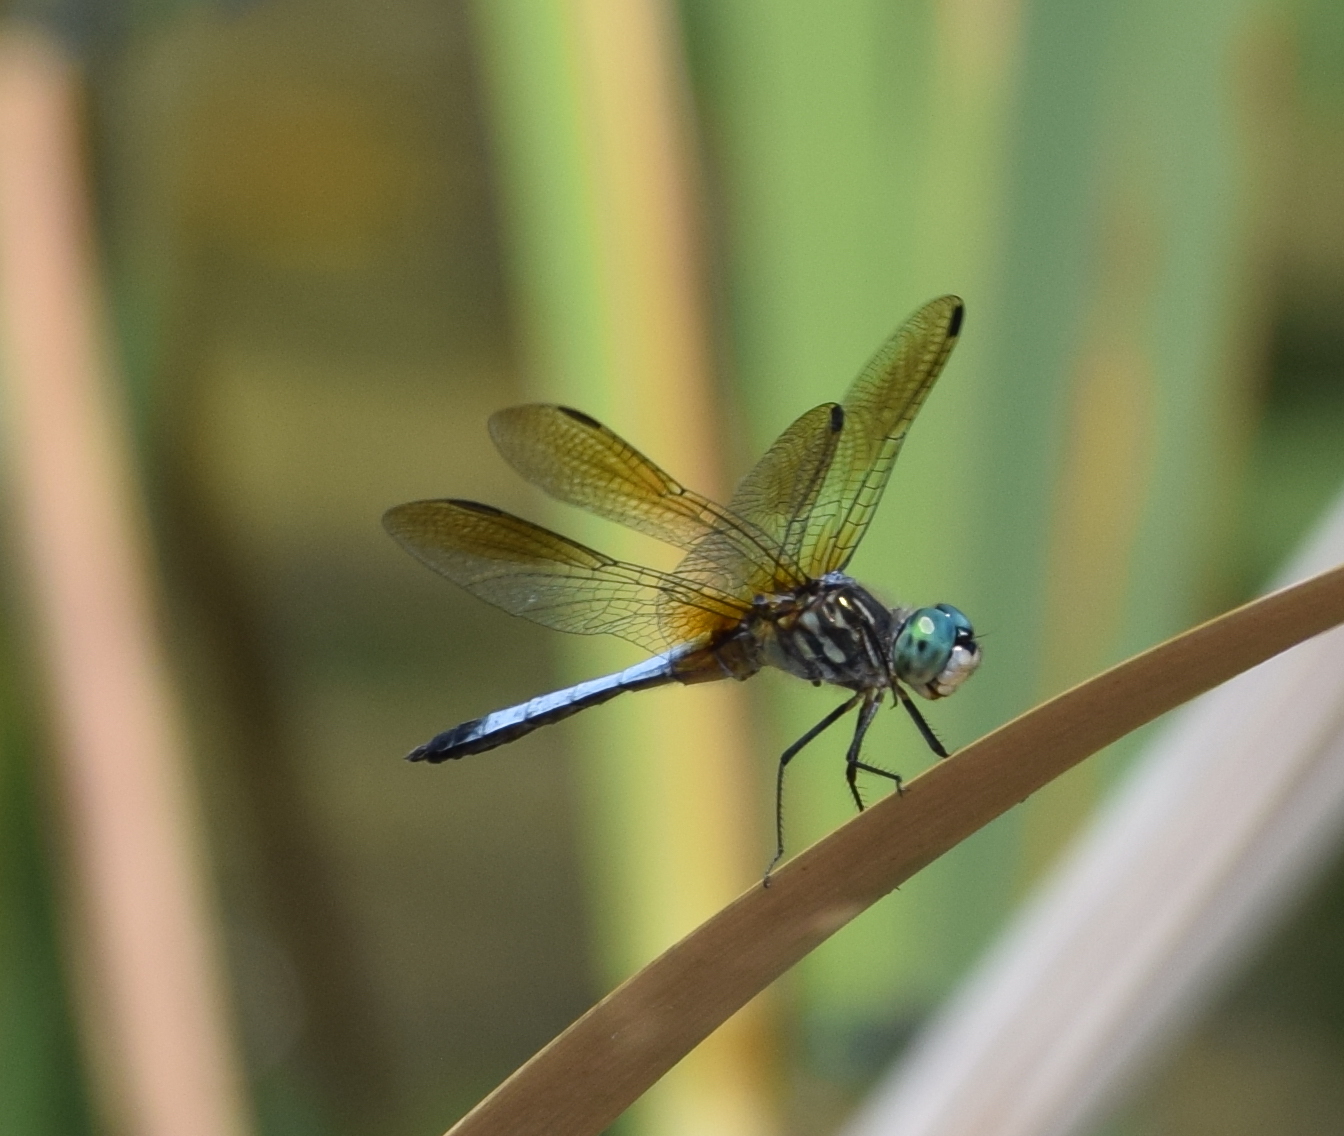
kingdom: Animalia
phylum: Arthropoda
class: Insecta
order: Odonata
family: Libellulidae
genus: Pachydiplax
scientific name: Pachydiplax longipennis
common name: Blue dasher
